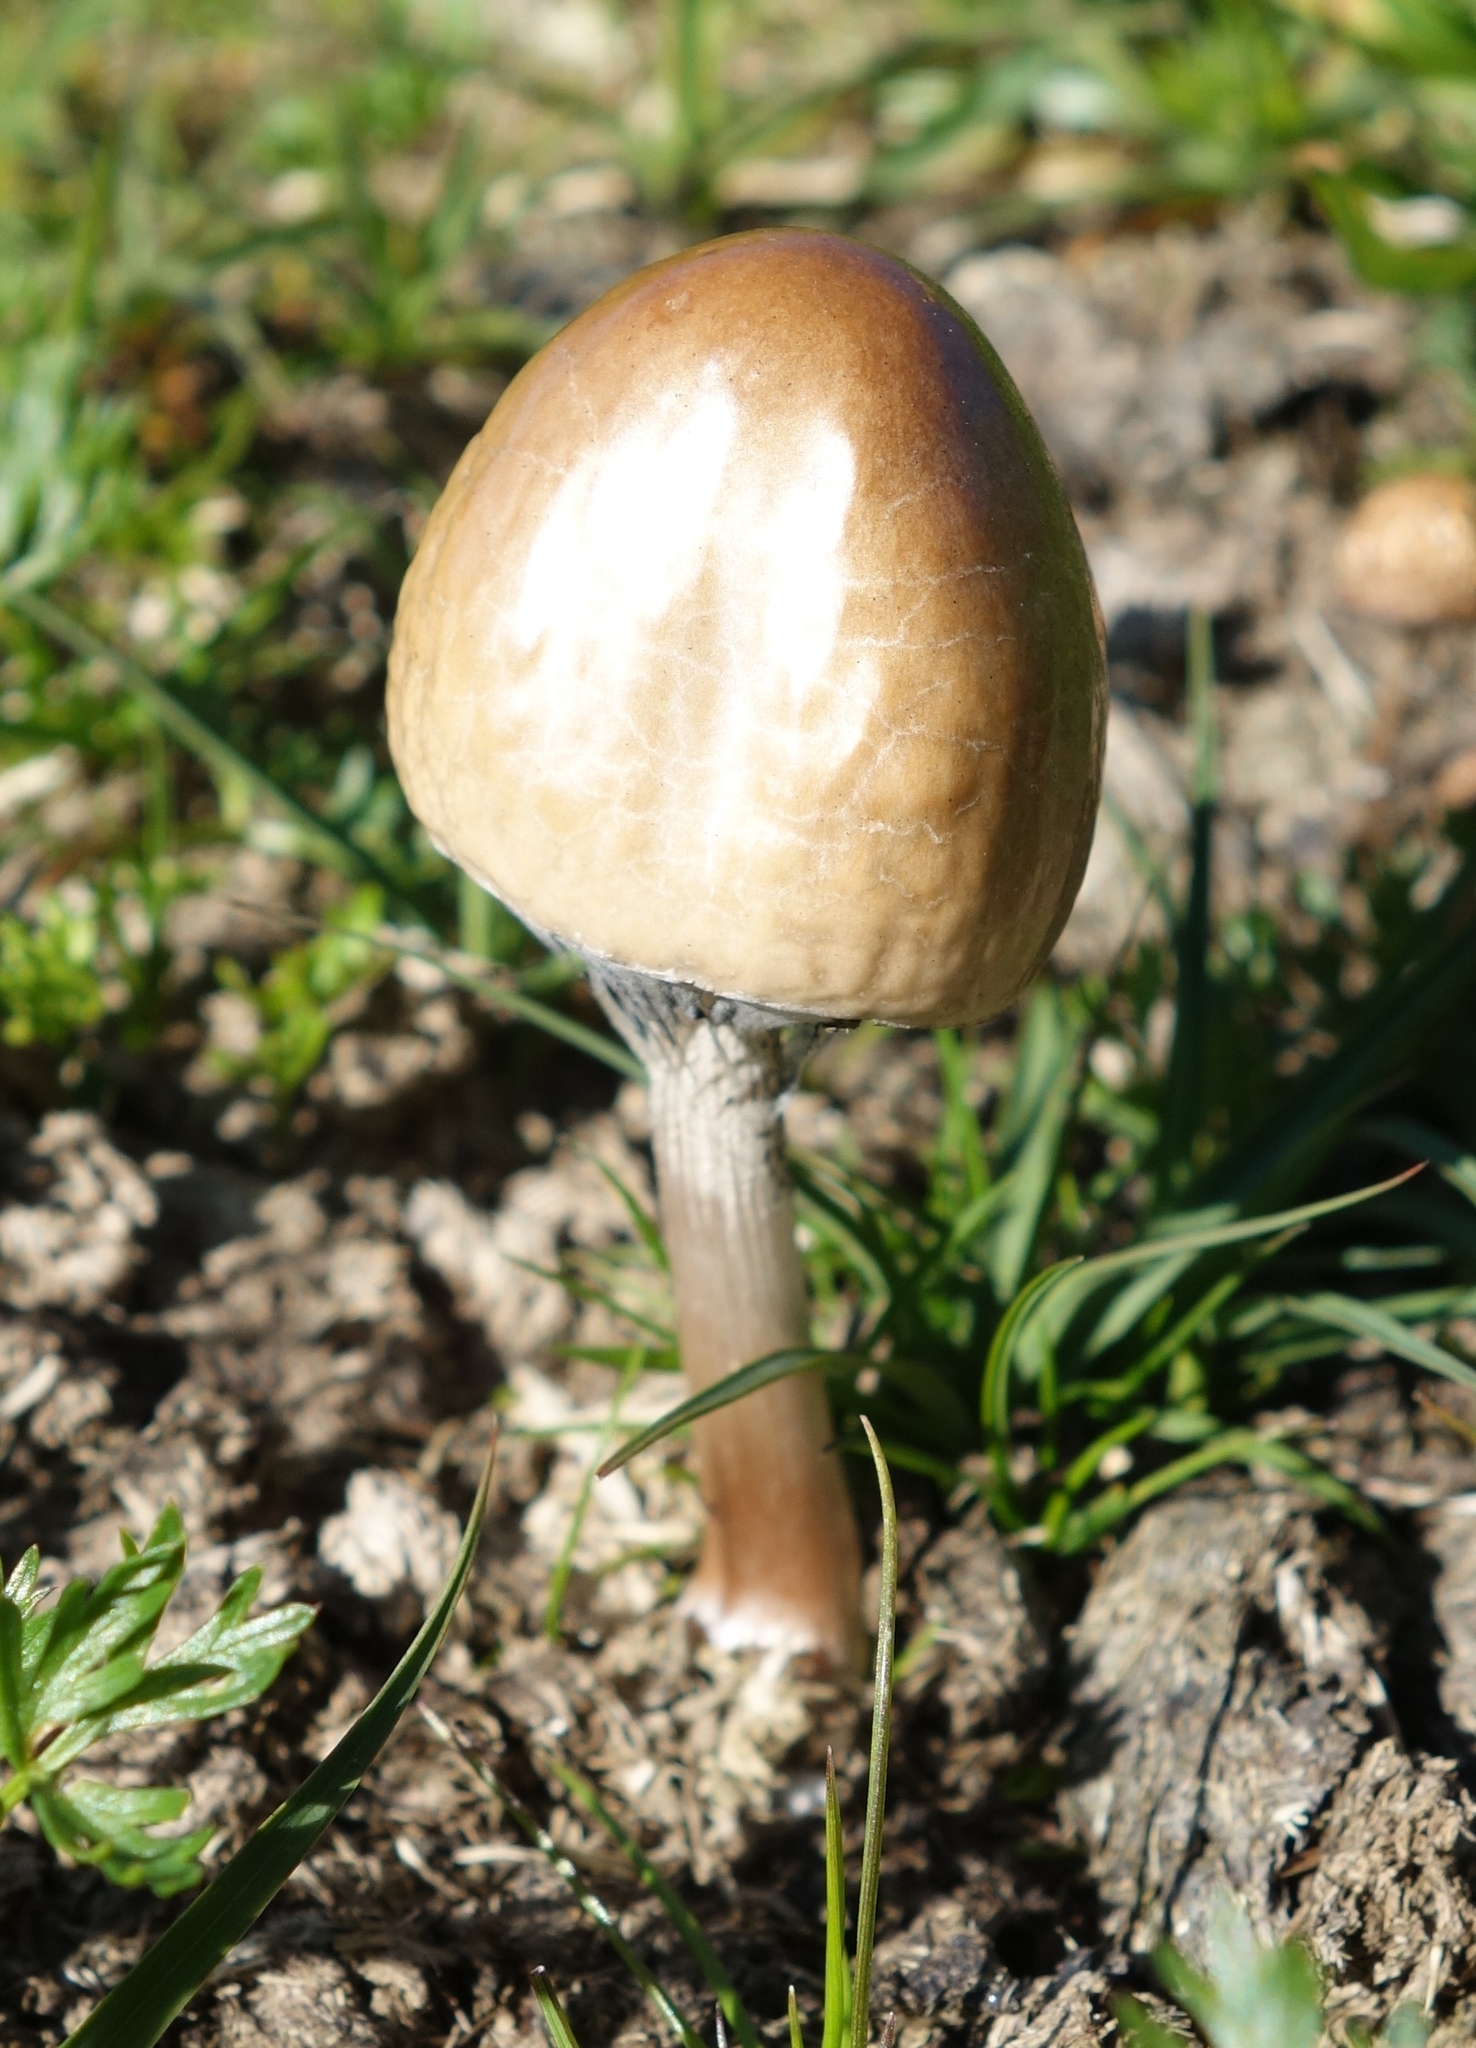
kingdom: Fungi
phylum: Basidiomycota
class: Agaricomycetes
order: Agaricales
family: Bolbitiaceae
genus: Panaeolus
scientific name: Panaeolus semiovatus
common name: Shiny mottlegill
